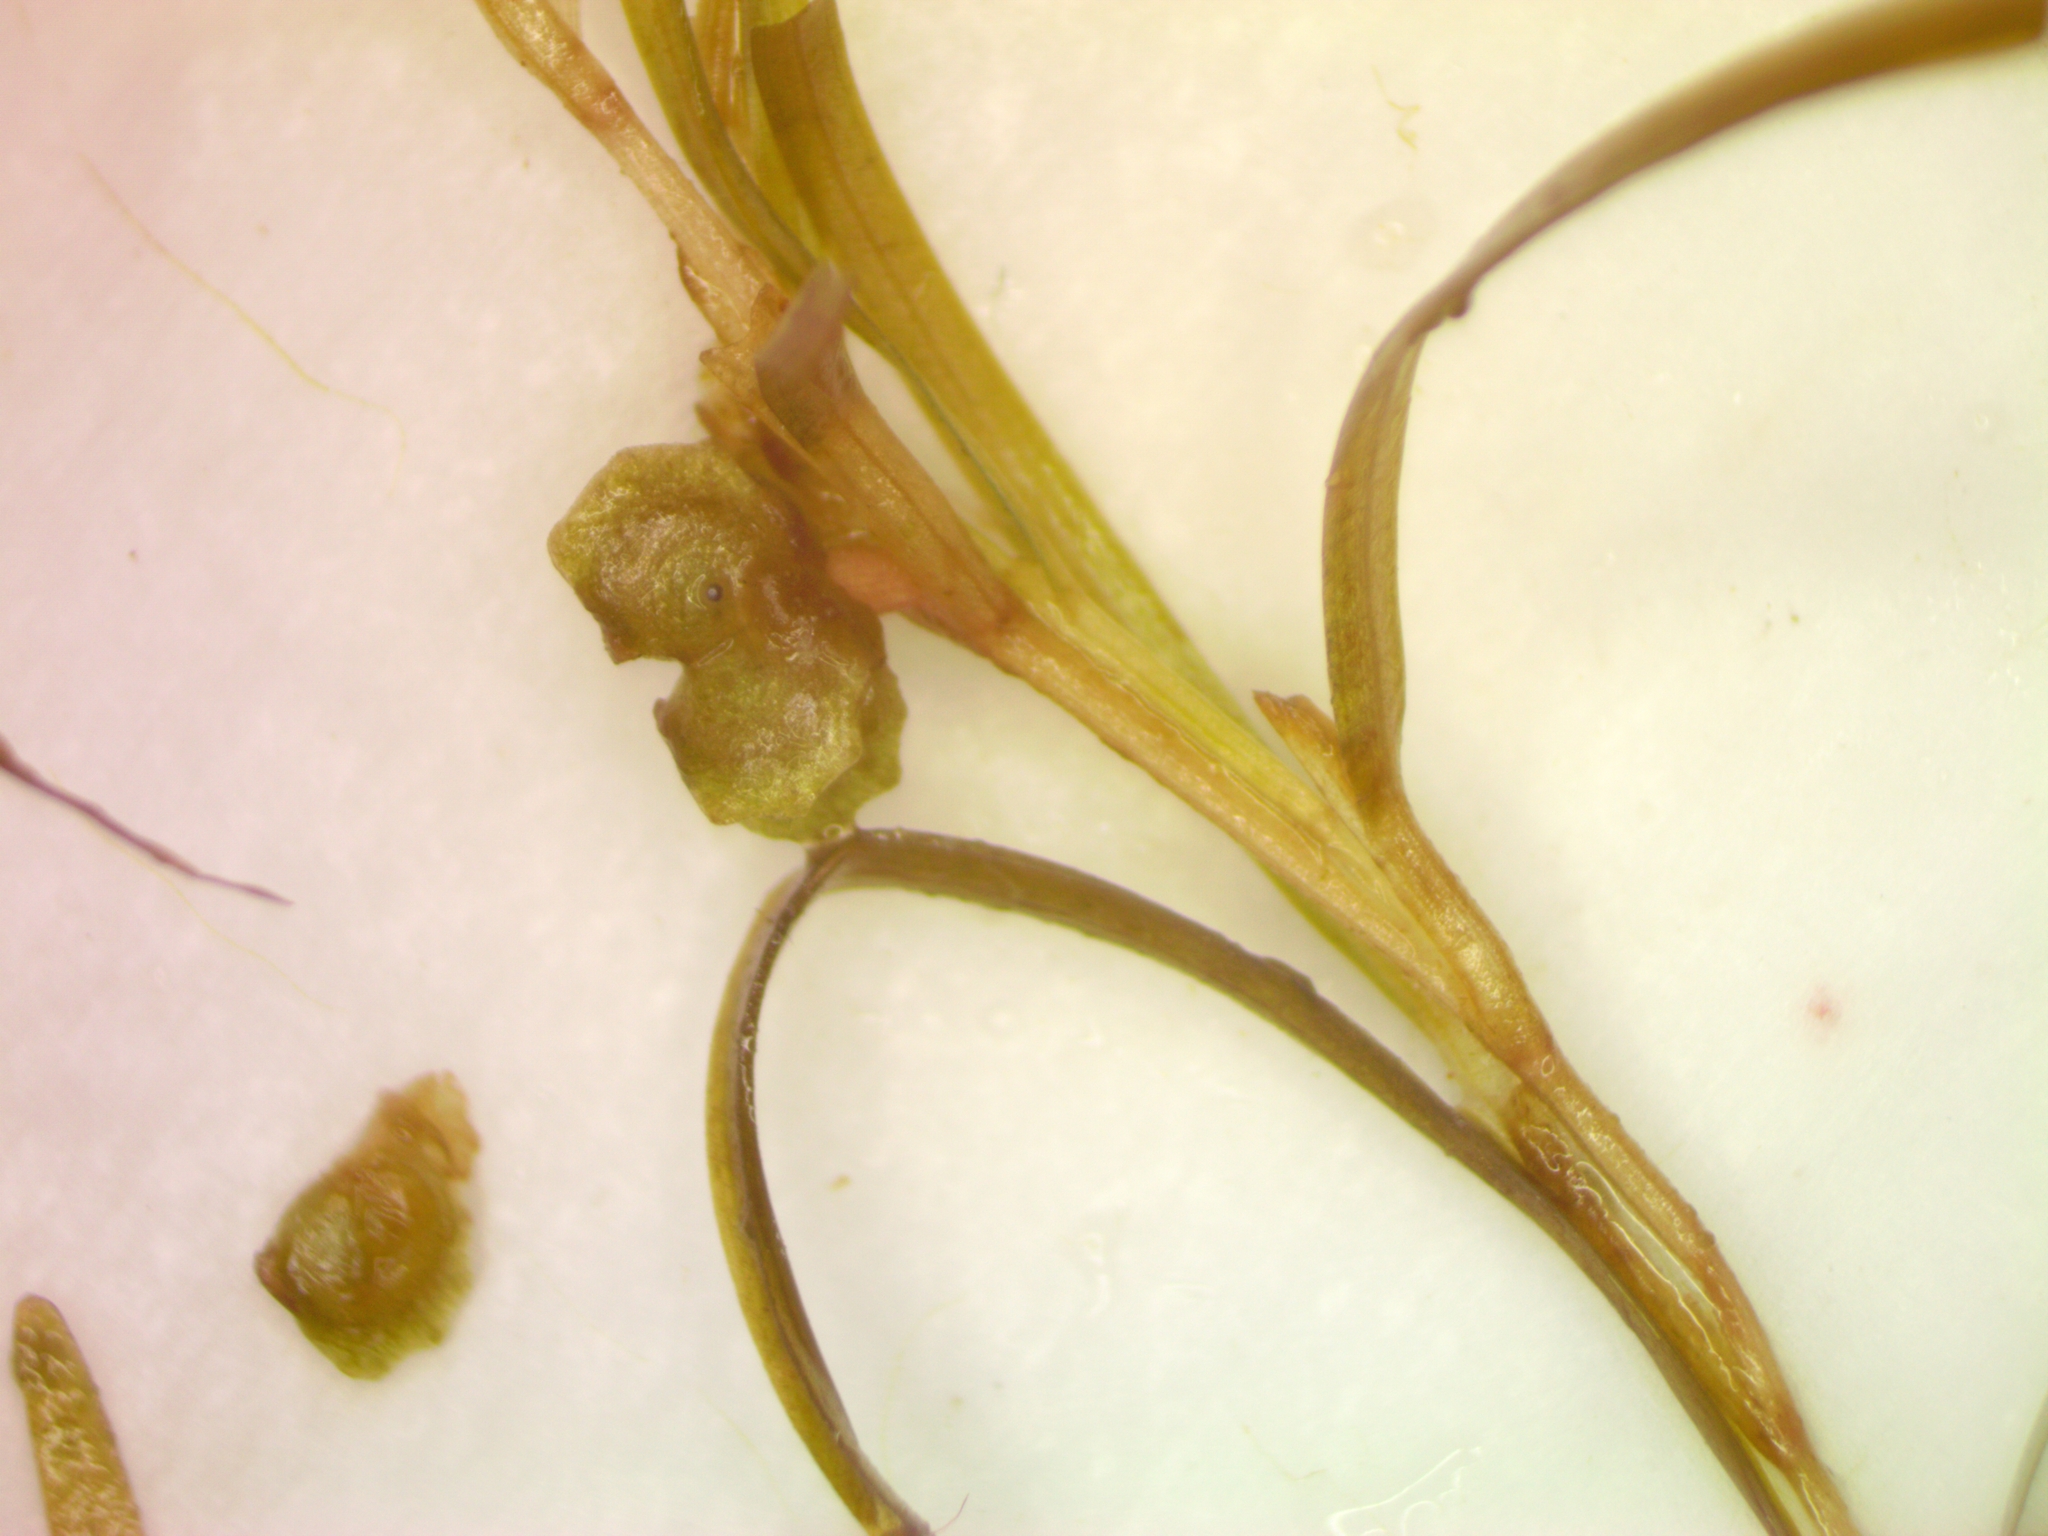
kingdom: Plantae
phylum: Tracheophyta
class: Liliopsida
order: Alismatales
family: Potamogetonaceae
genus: Potamogeton
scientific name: Potamogeton spirillus
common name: Northern snail-seed pondweed
